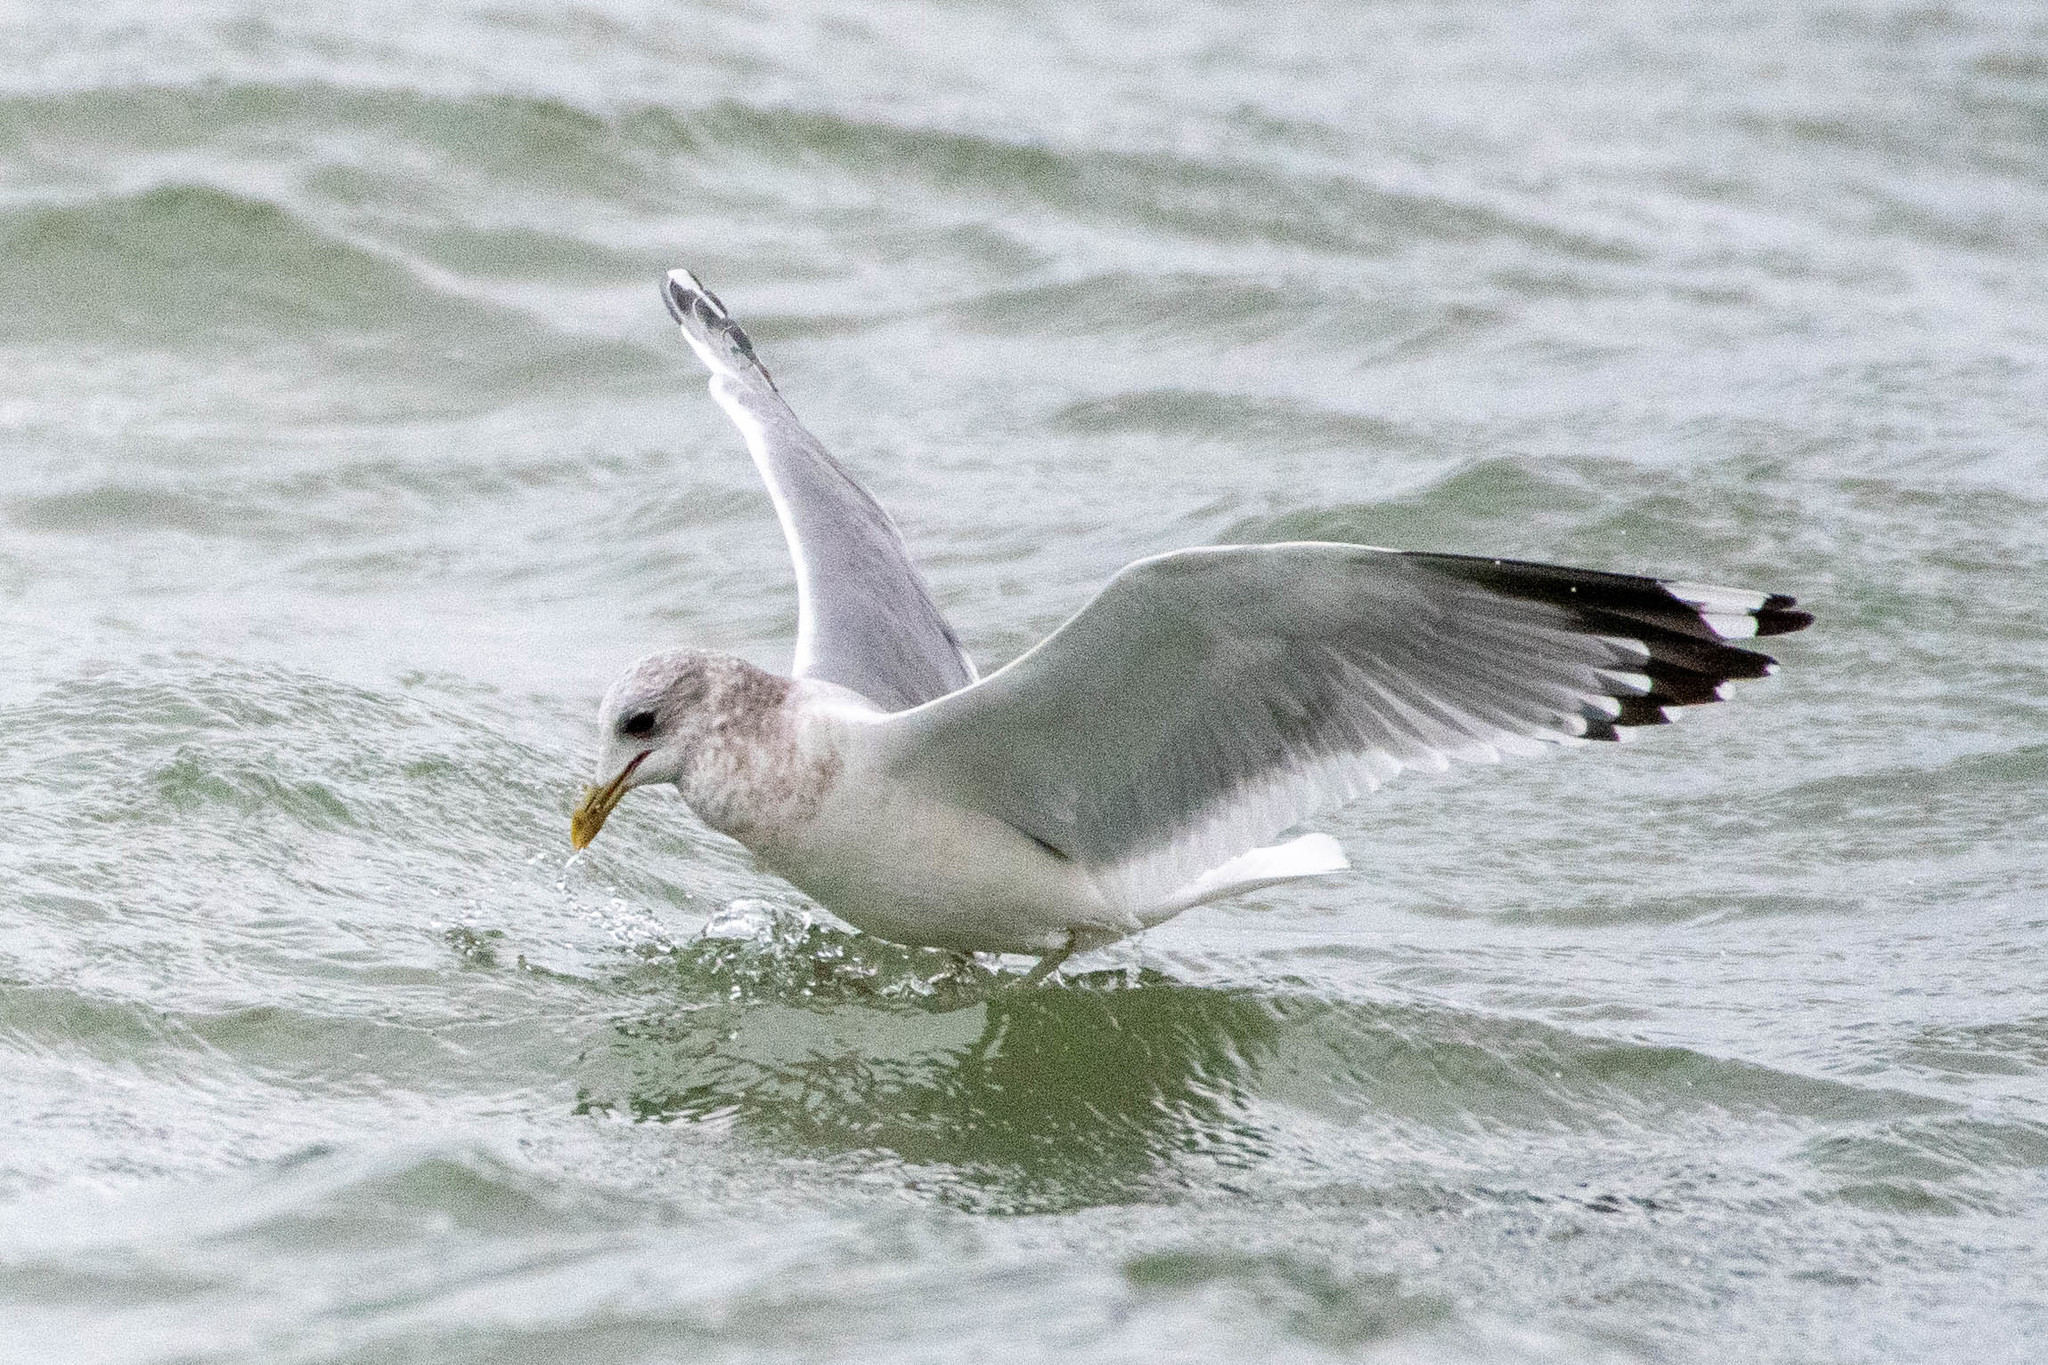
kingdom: Animalia
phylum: Chordata
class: Aves
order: Charadriiformes
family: Laridae
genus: Larus
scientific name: Larus brachyrhynchus
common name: Short-billed gull
